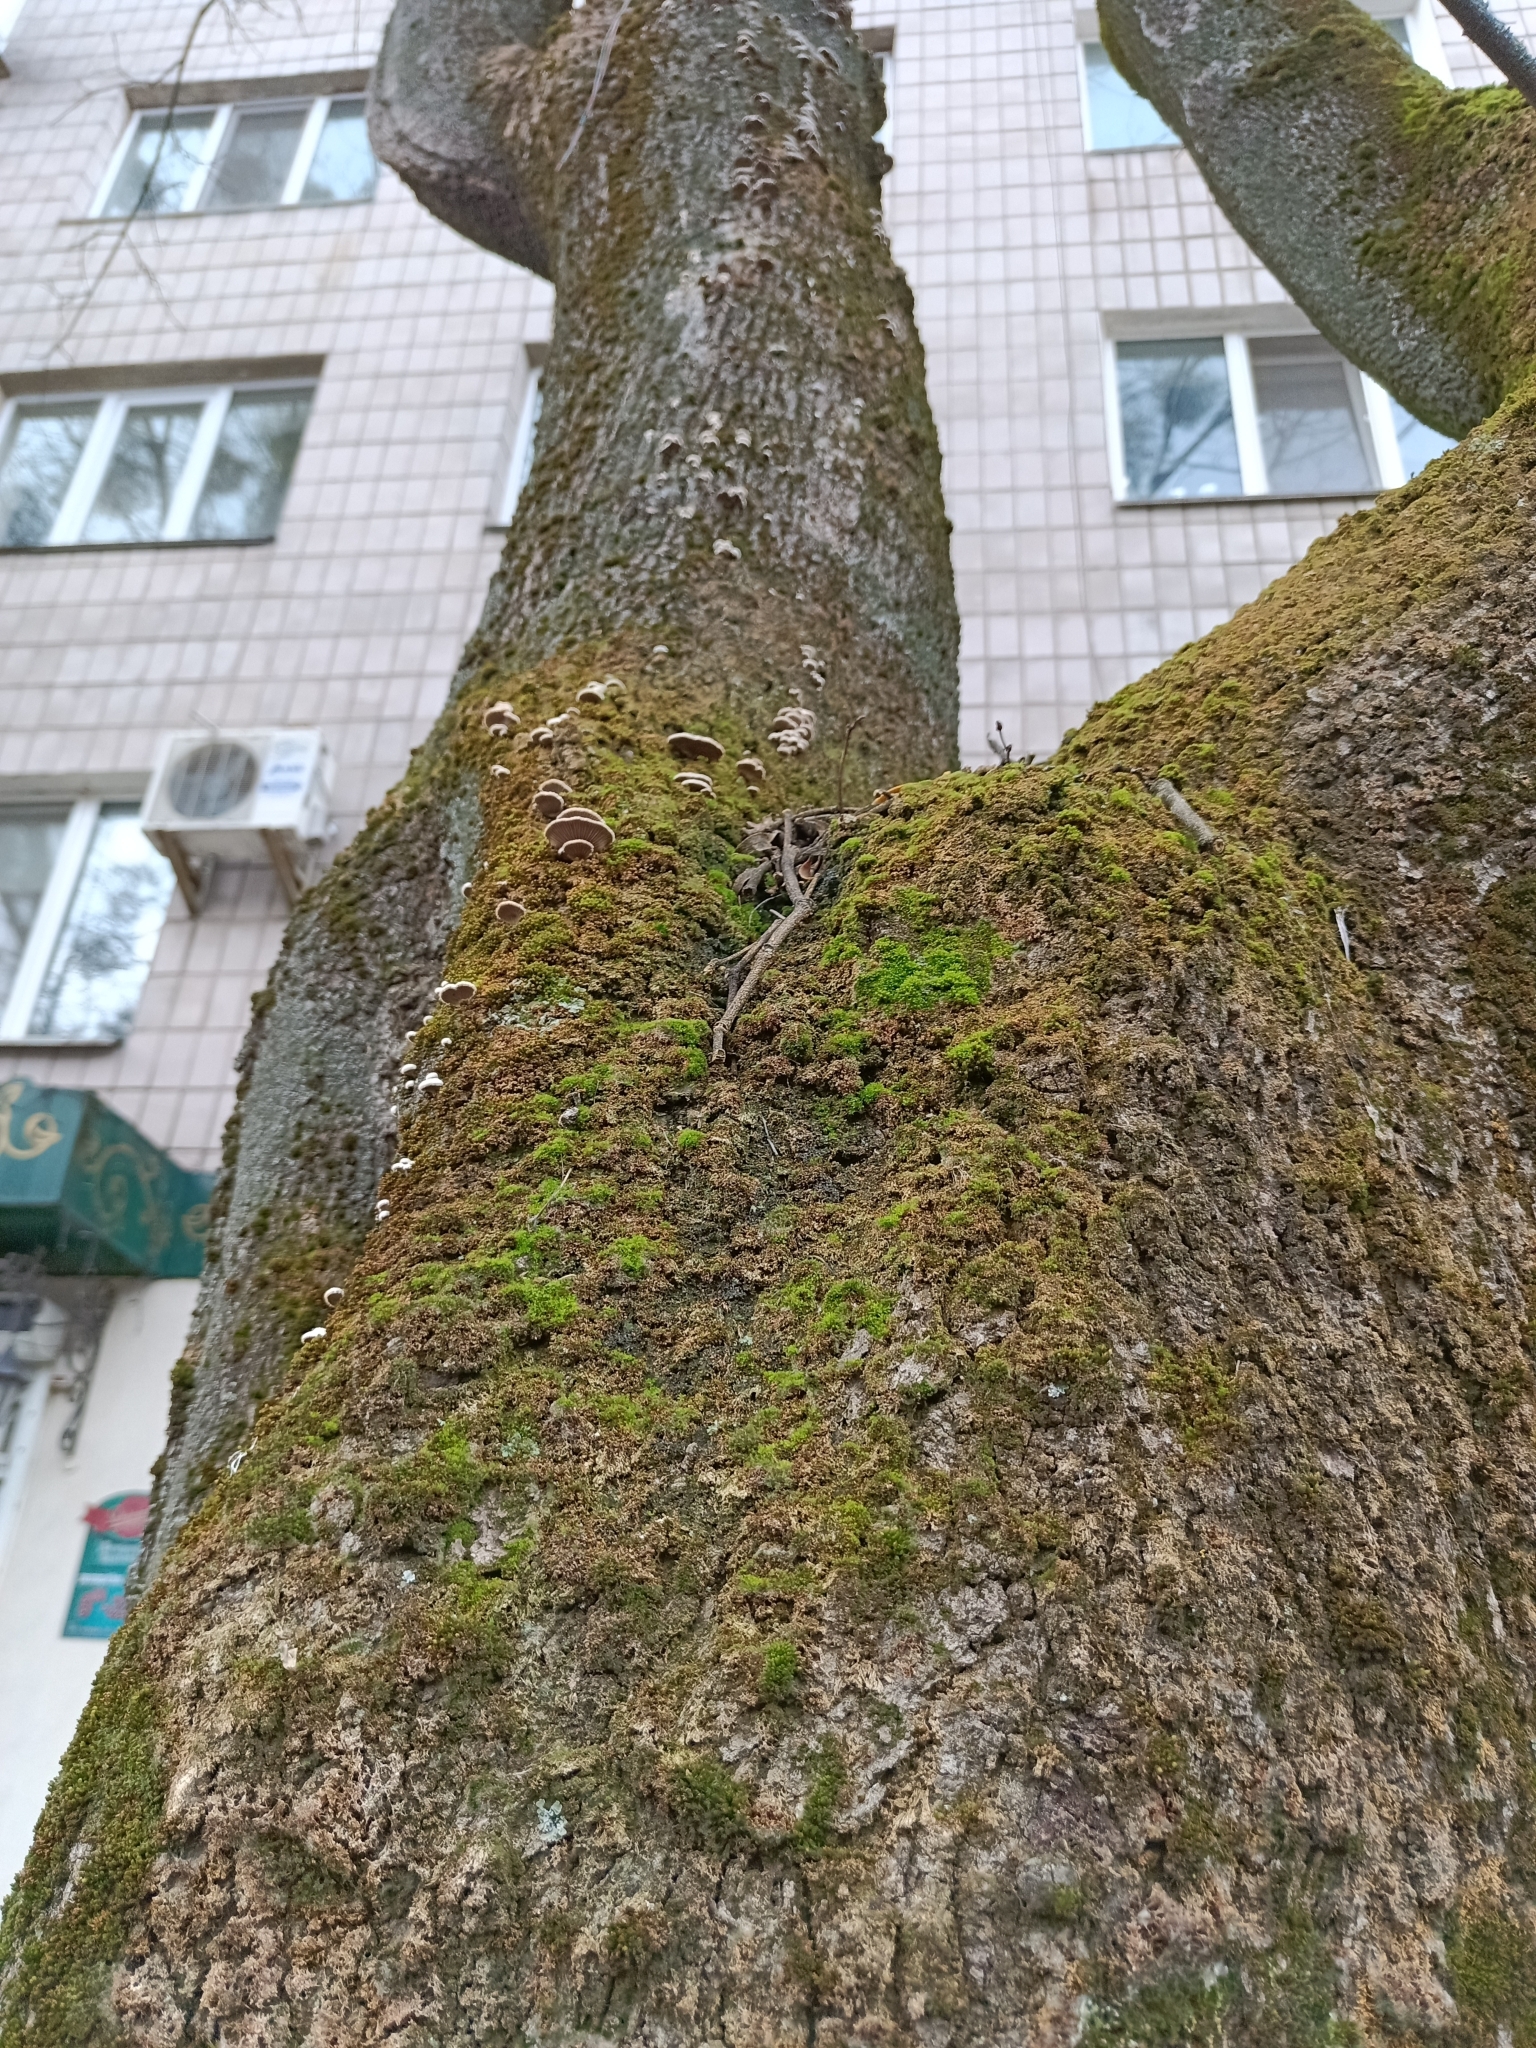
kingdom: Fungi
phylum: Basidiomycota
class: Agaricomycetes
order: Agaricales
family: Schizophyllaceae
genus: Schizophyllum
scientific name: Schizophyllum commune
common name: Common porecrust
